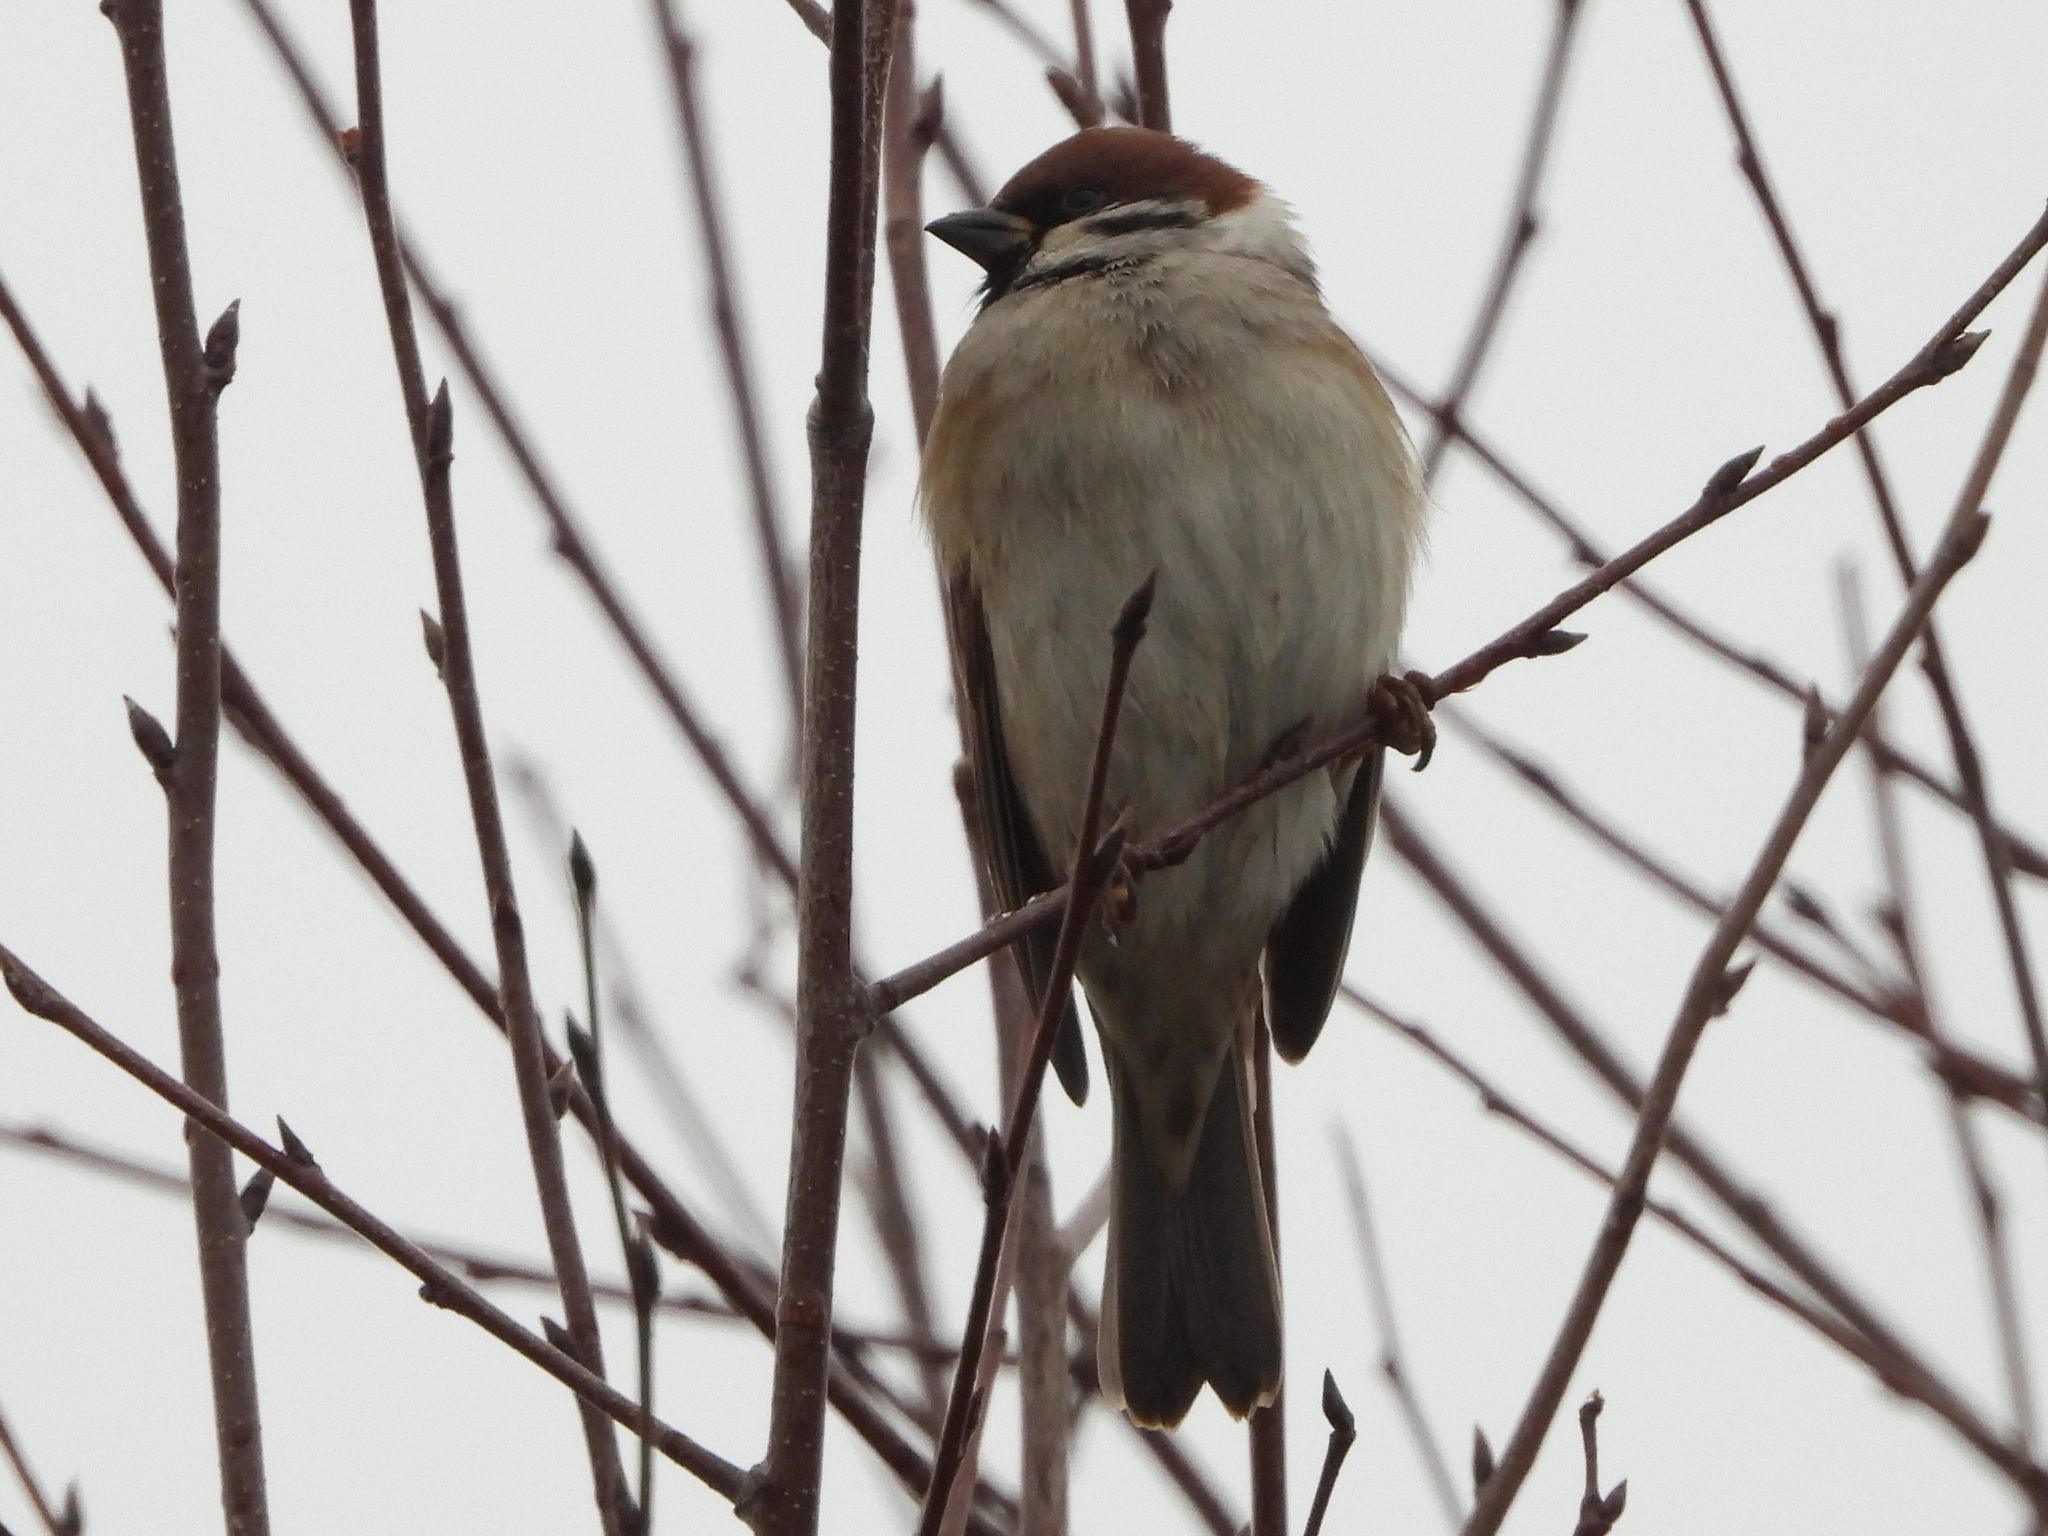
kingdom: Animalia
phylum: Chordata
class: Aves
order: Passeriformes
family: Passeridae
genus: Passer
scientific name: Passer montanus
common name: Eurasian tree sparrow
